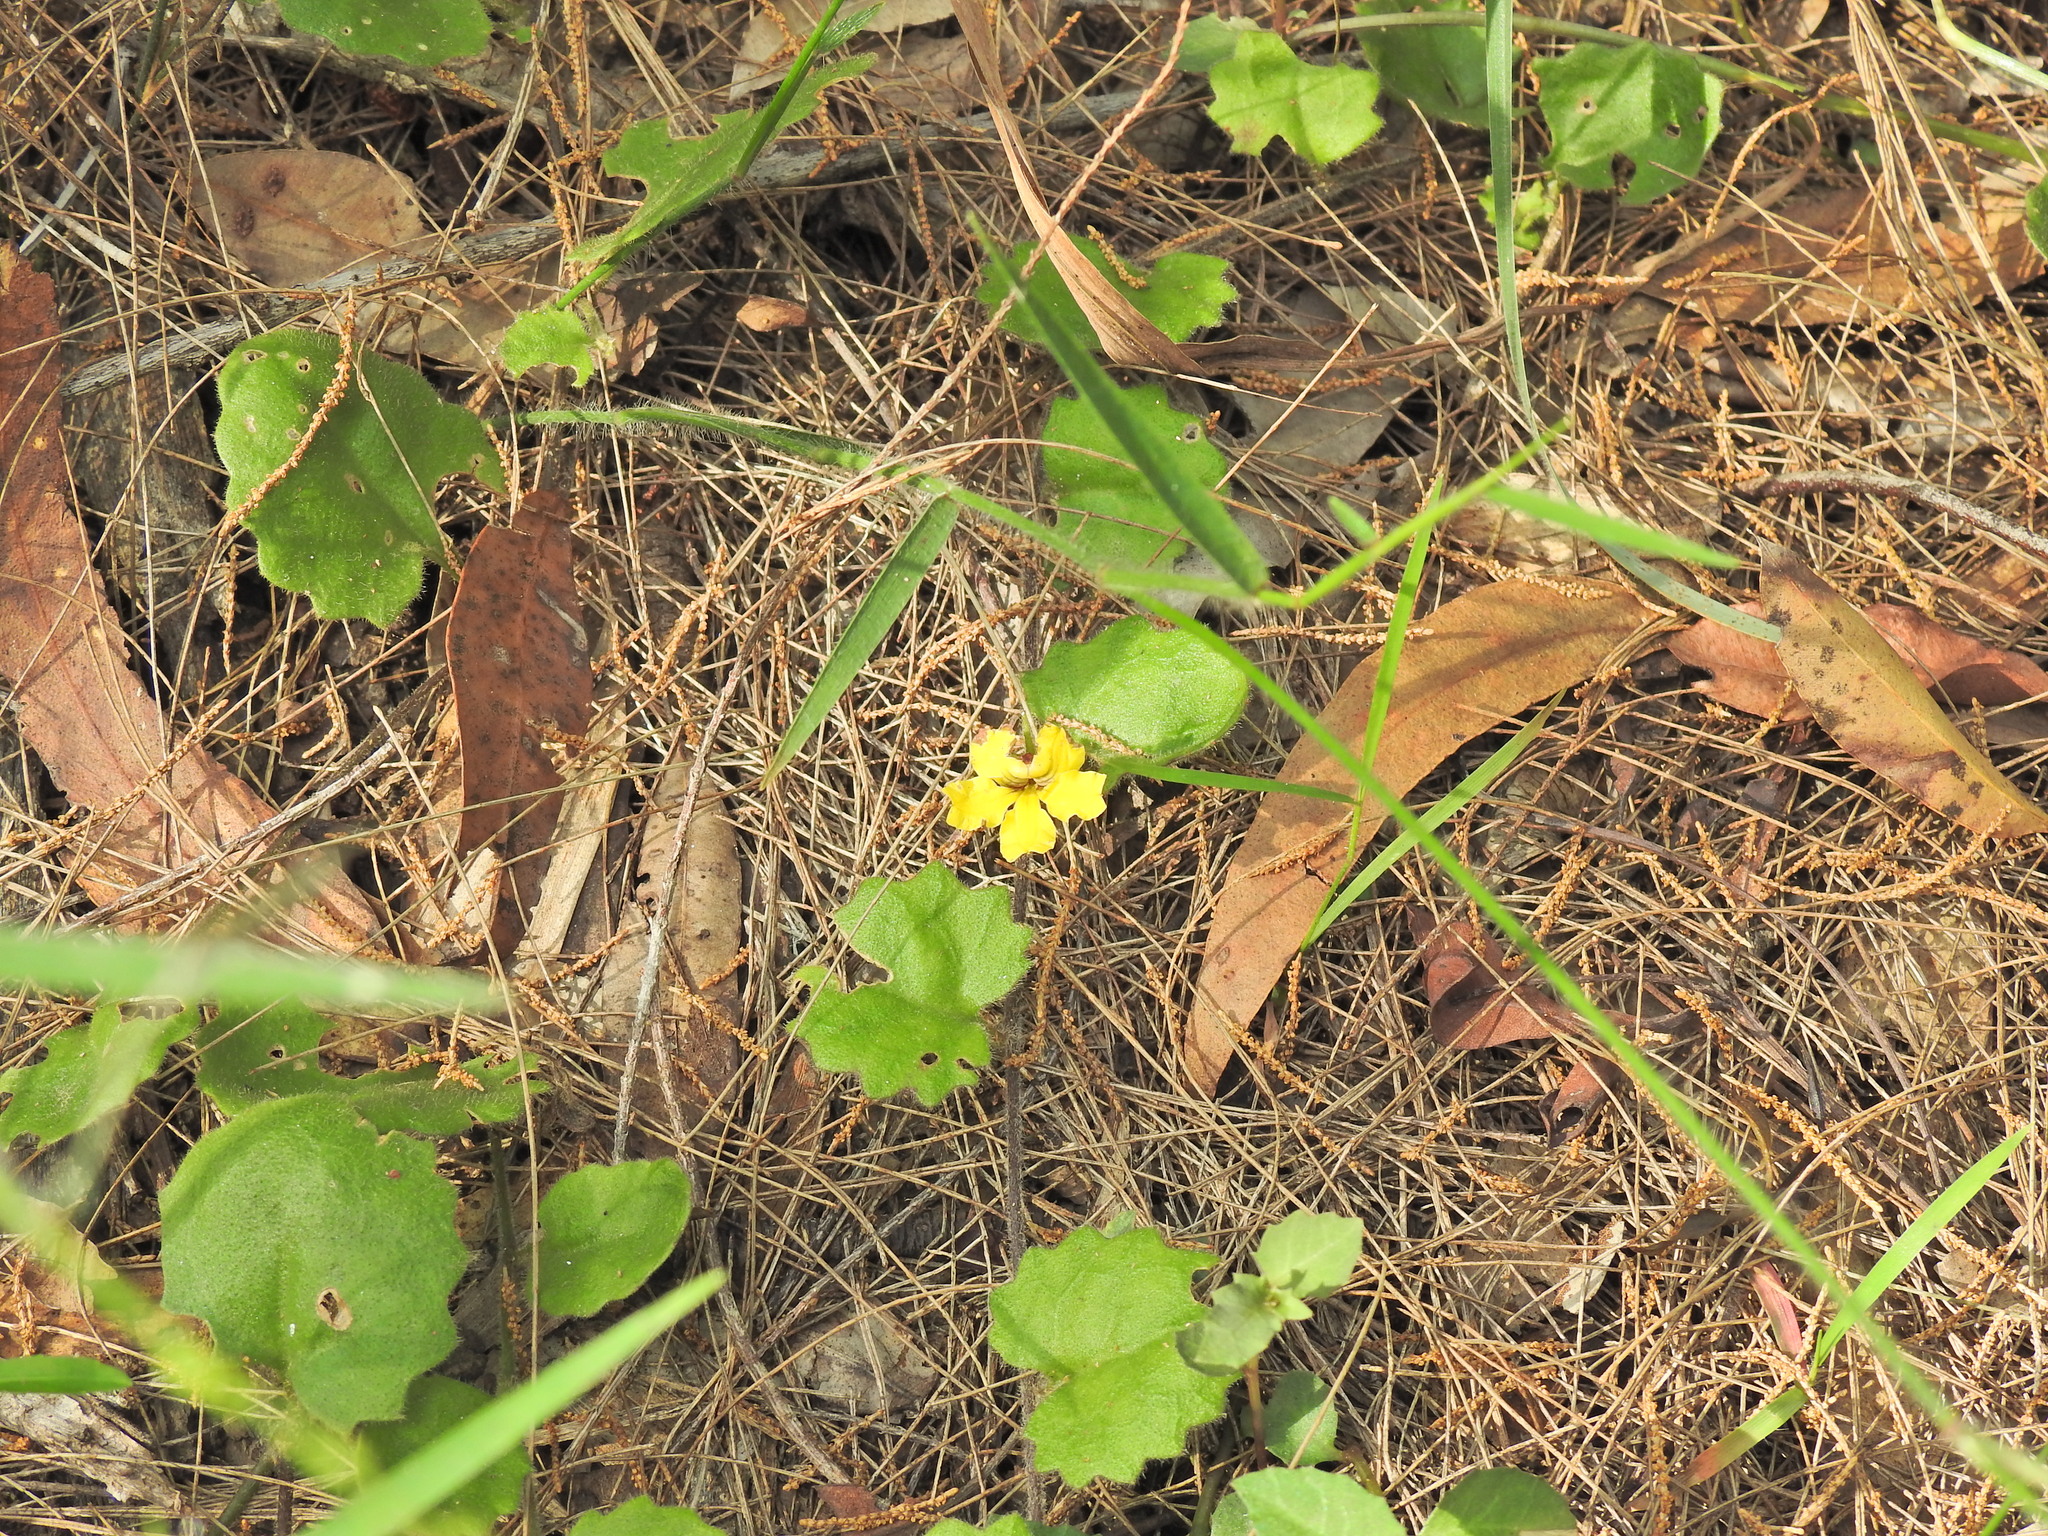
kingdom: Plantae
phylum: Tracheophyta
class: Magnoliopsida
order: Asterales
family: Goodeniaceae
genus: Goodenia
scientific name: Goodenia rotundifolia
